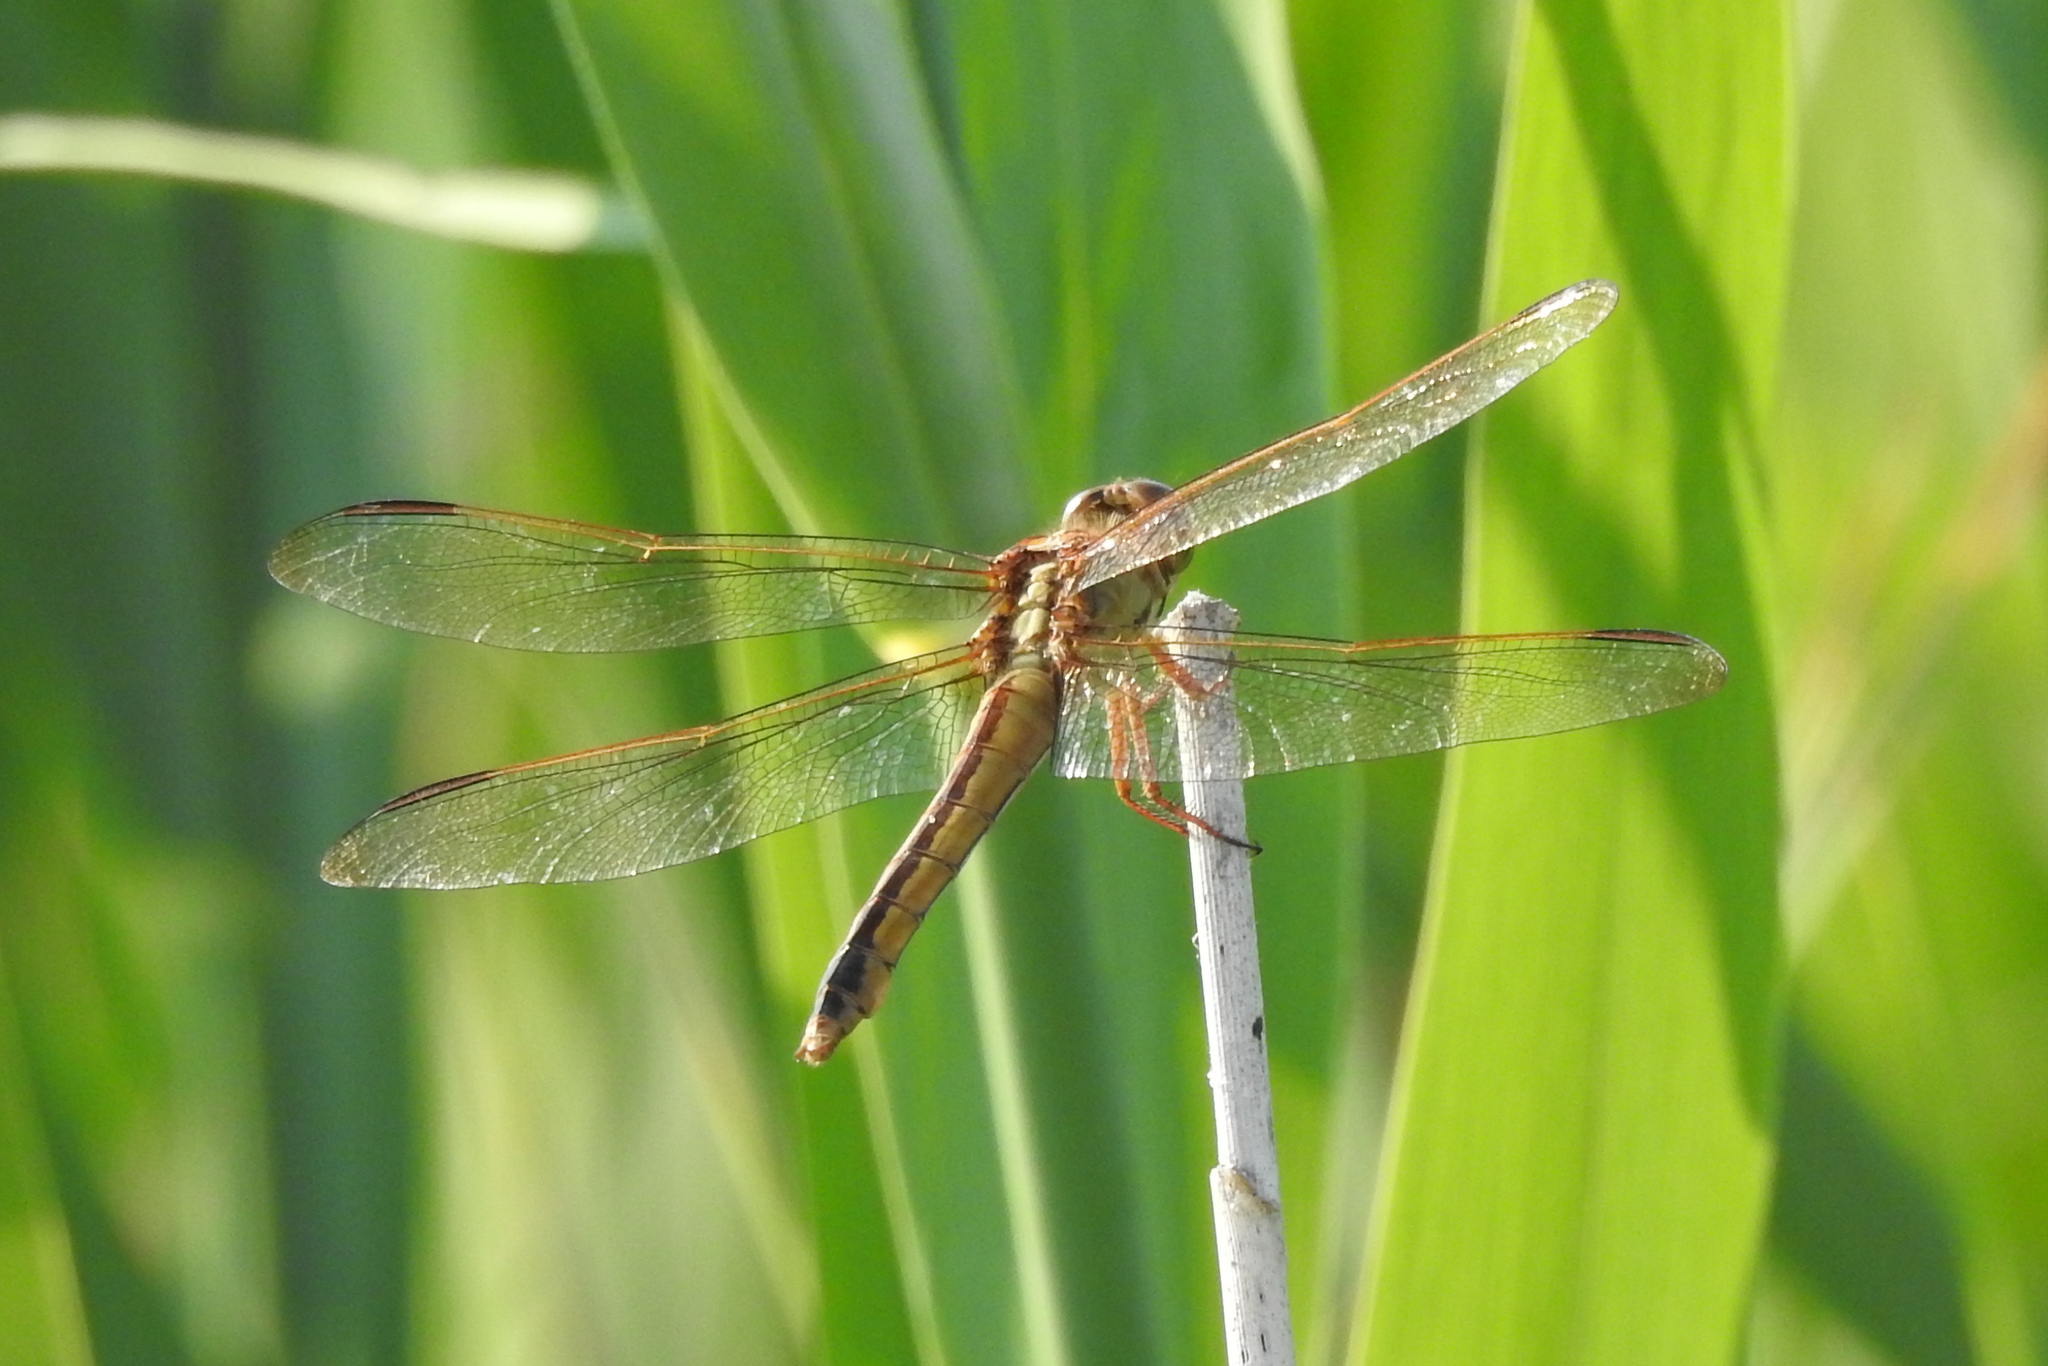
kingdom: Animalia
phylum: Arthropoda
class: Insecta
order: Odonata
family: Libellulidae
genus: Libellula
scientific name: Libellula needhami
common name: Needham's skimmer
